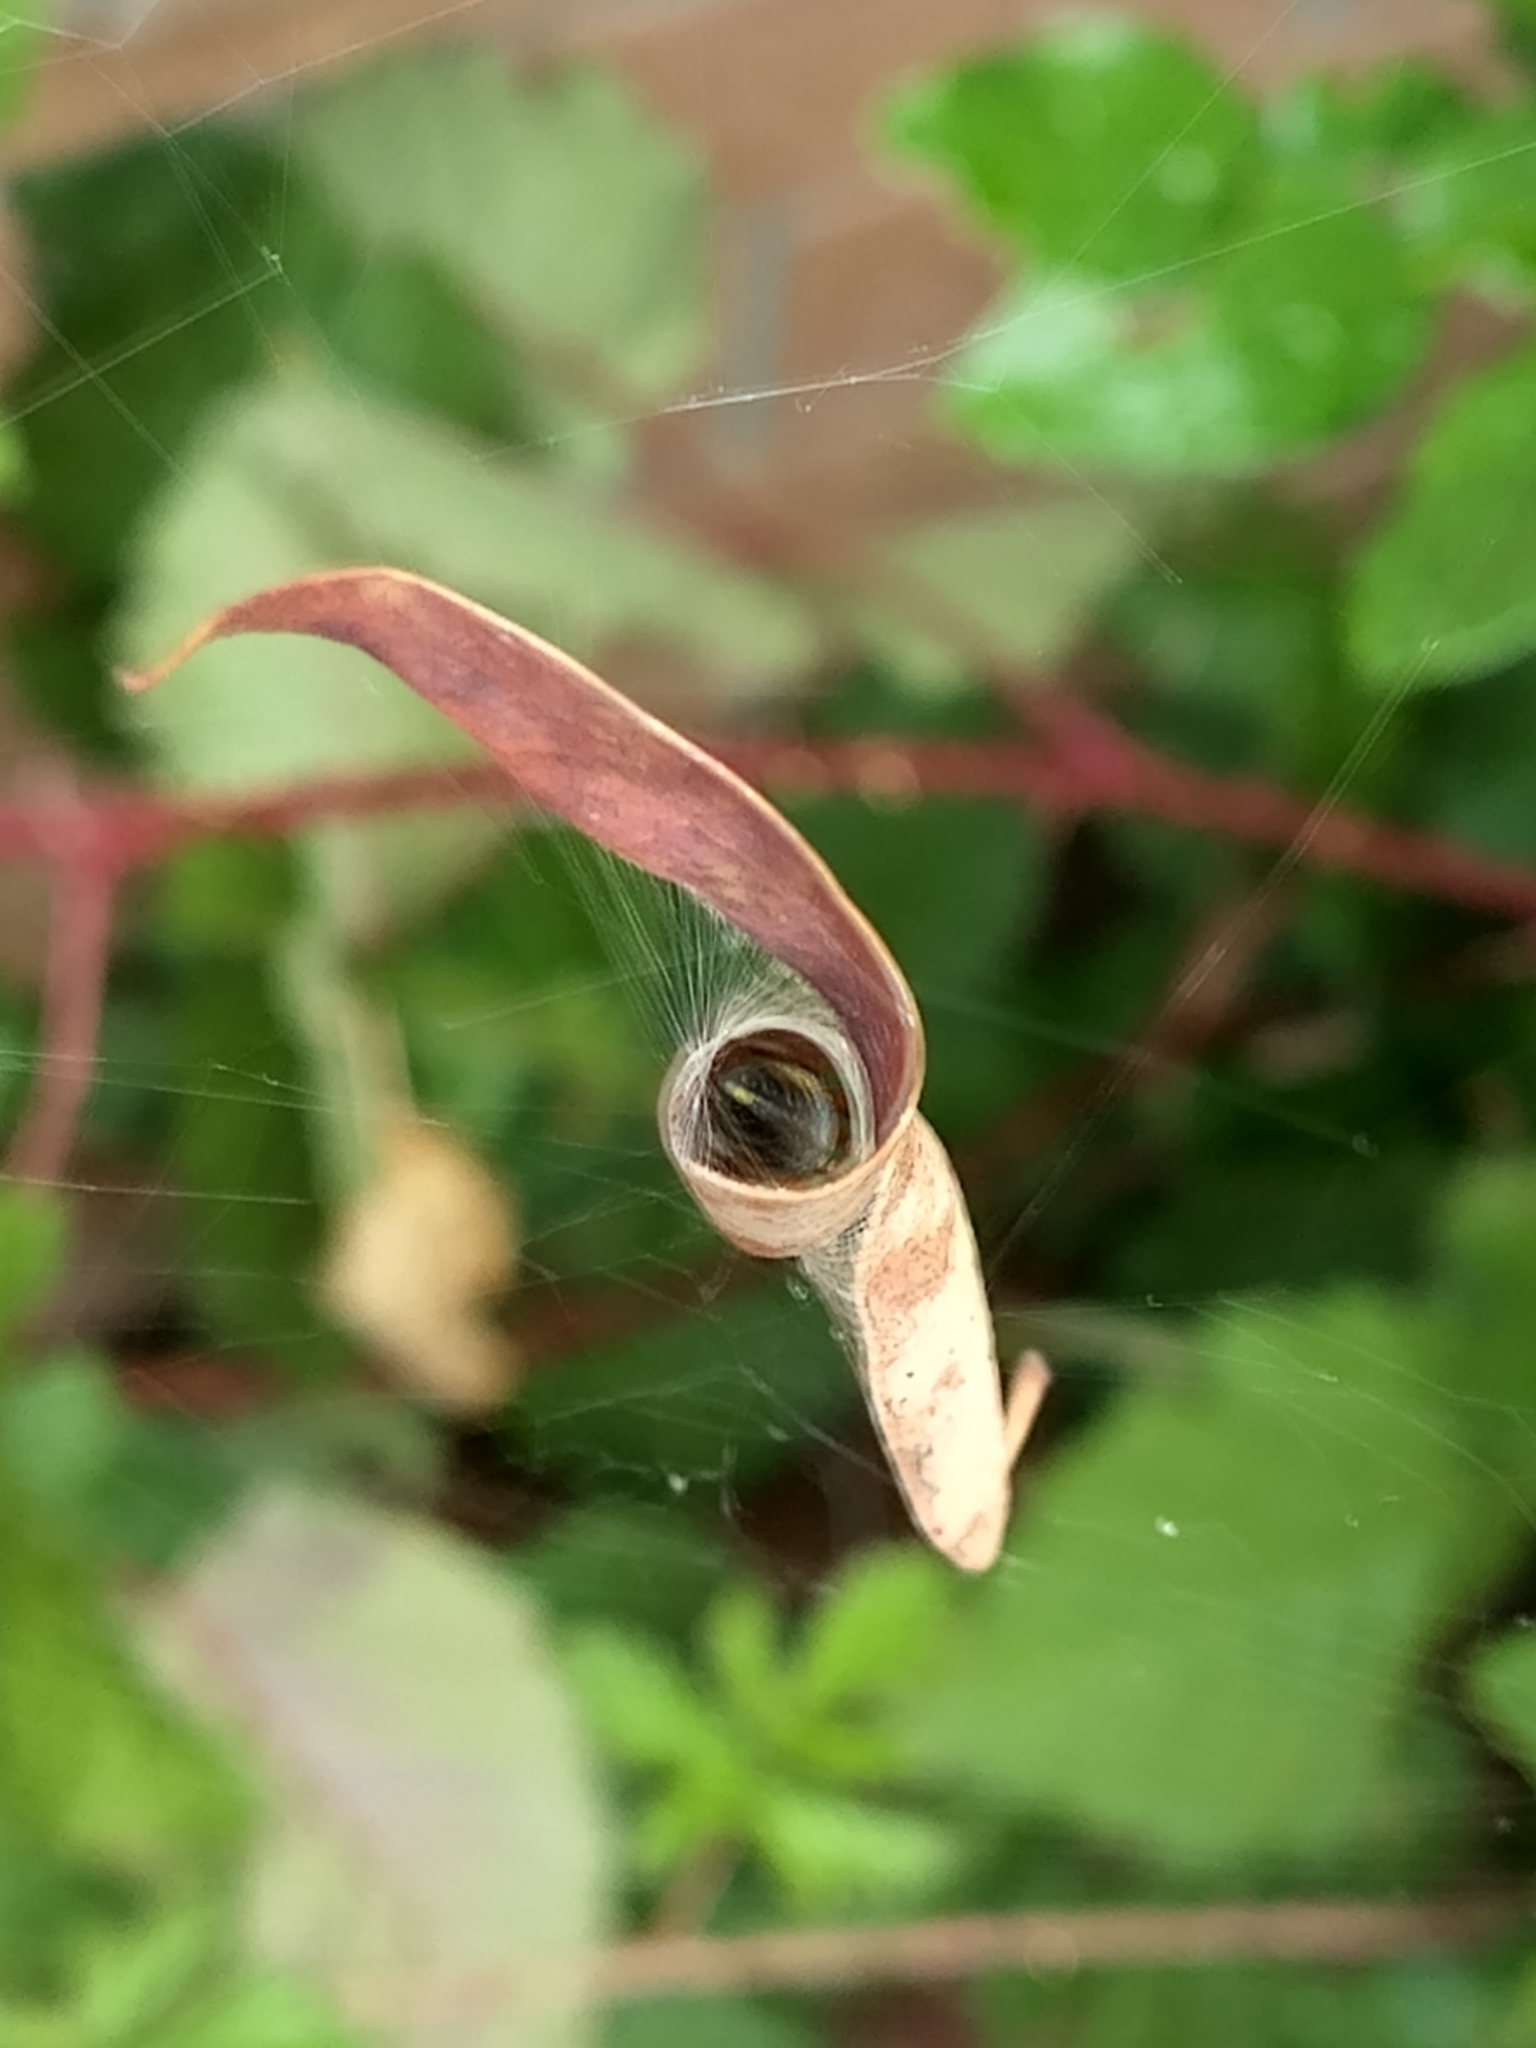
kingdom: Animalia
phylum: Arthropoda
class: Arachnida
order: Araneae
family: Araneidae
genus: Phonognatha
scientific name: Phonognatha graeffei
